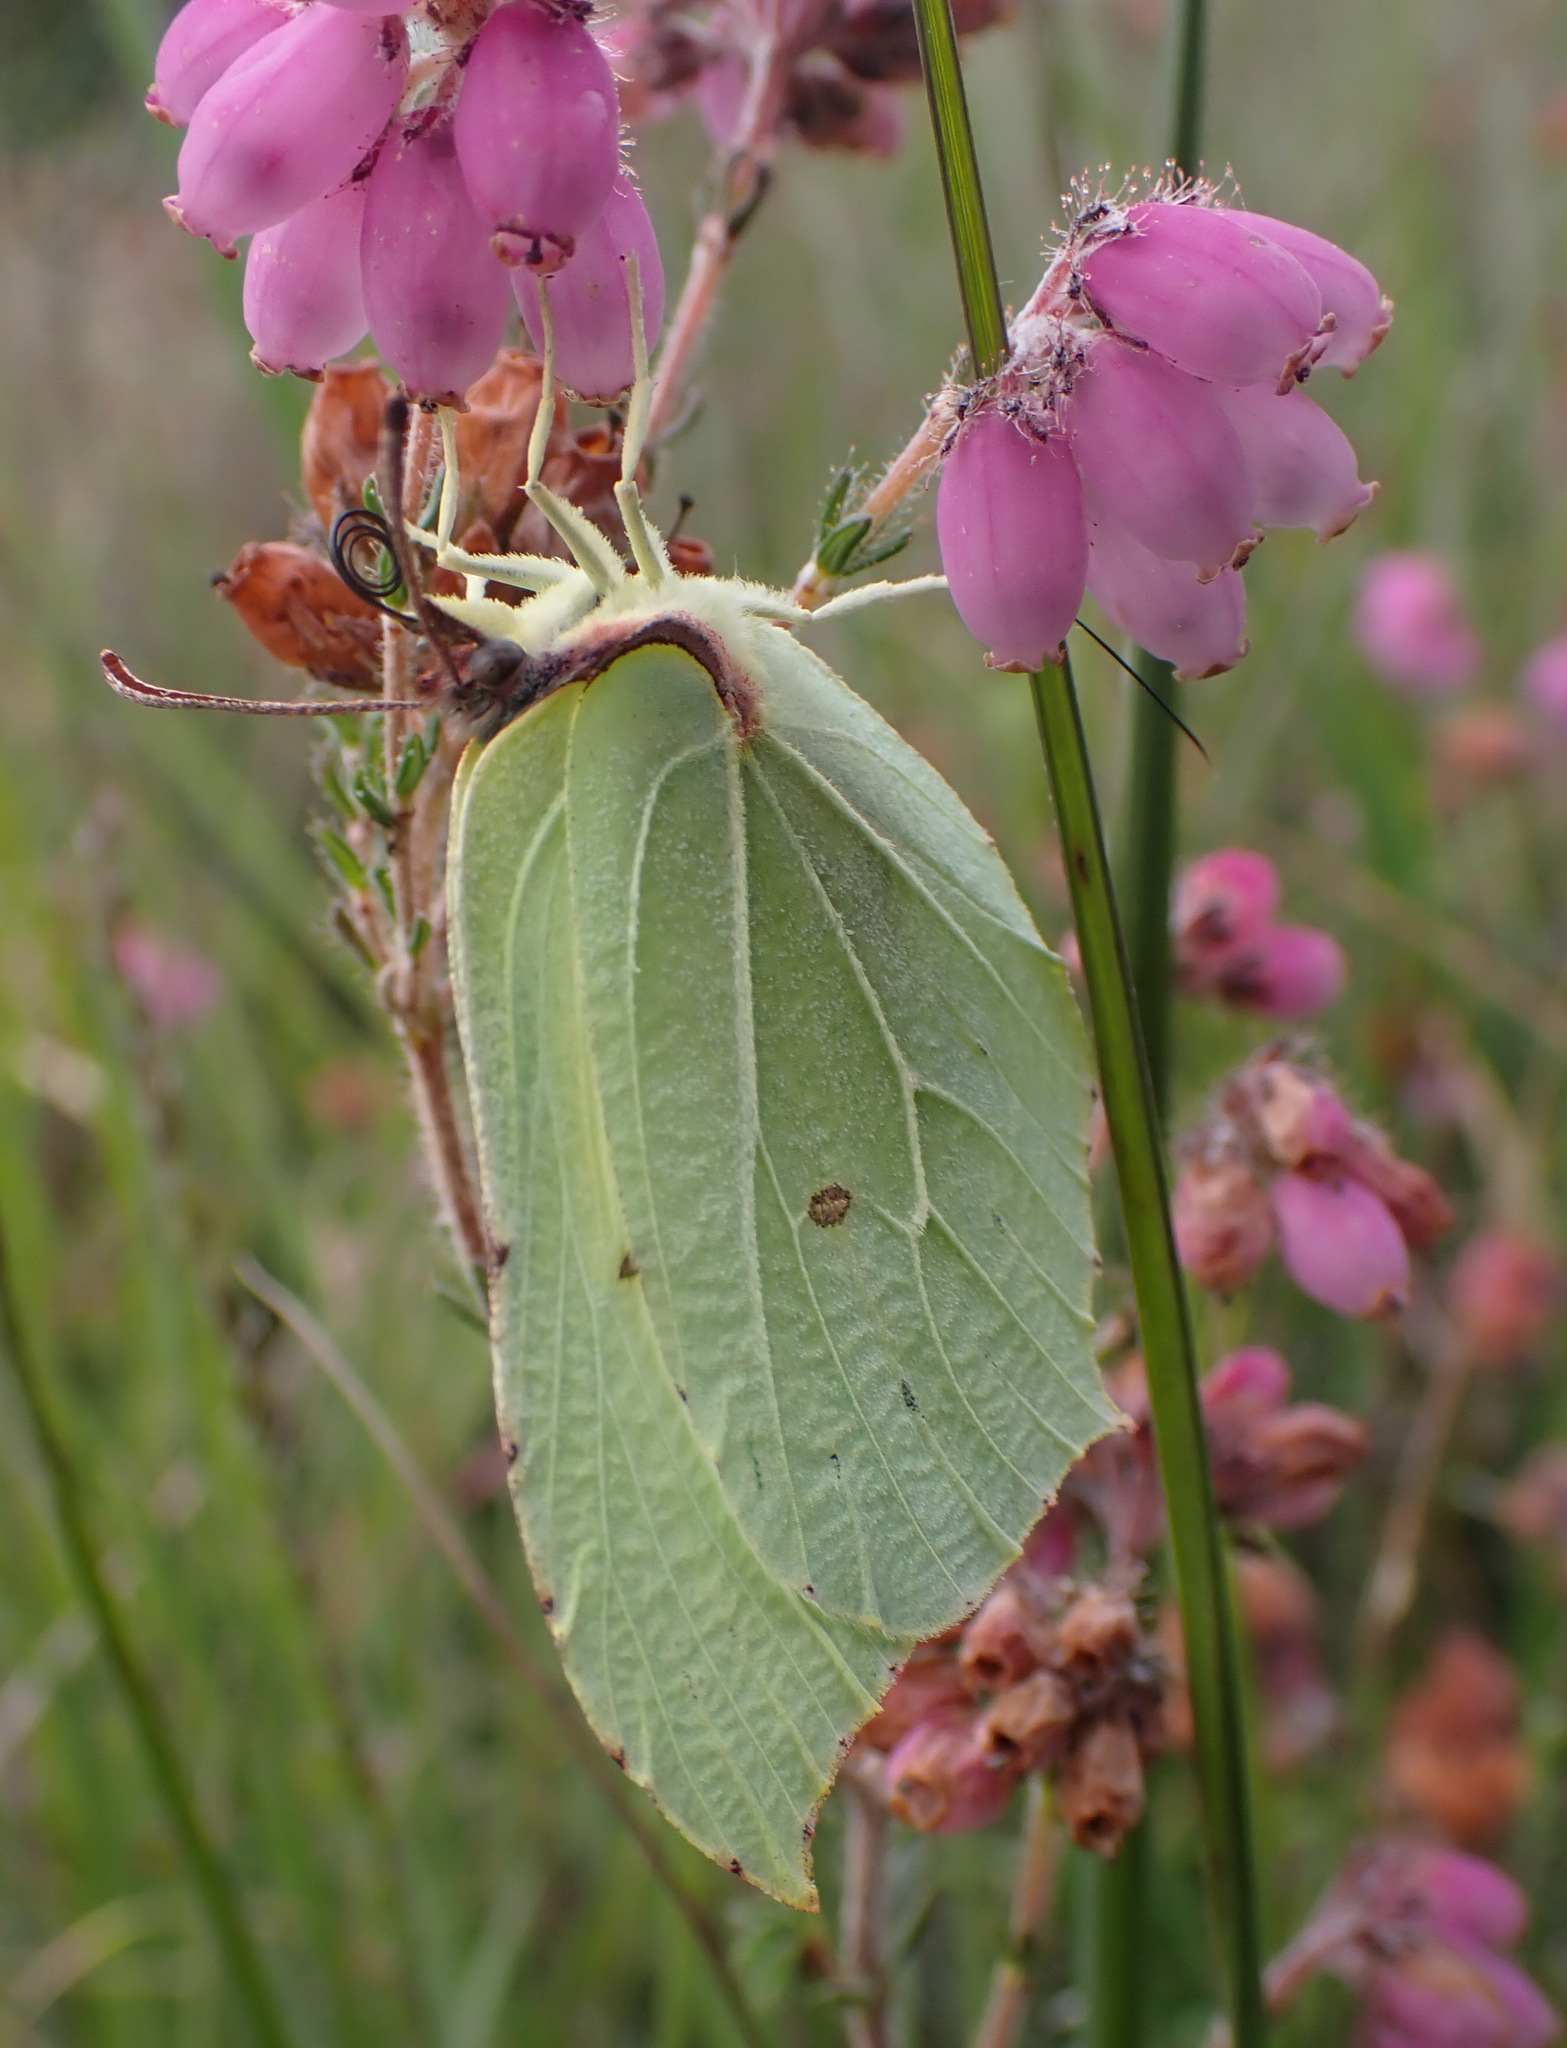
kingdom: Animalia
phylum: Arthropoda
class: Insecta
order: Lepidoptera
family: Pieridae
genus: Gonepteryx
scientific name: Gonepteryx rhamni
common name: Brimstone
